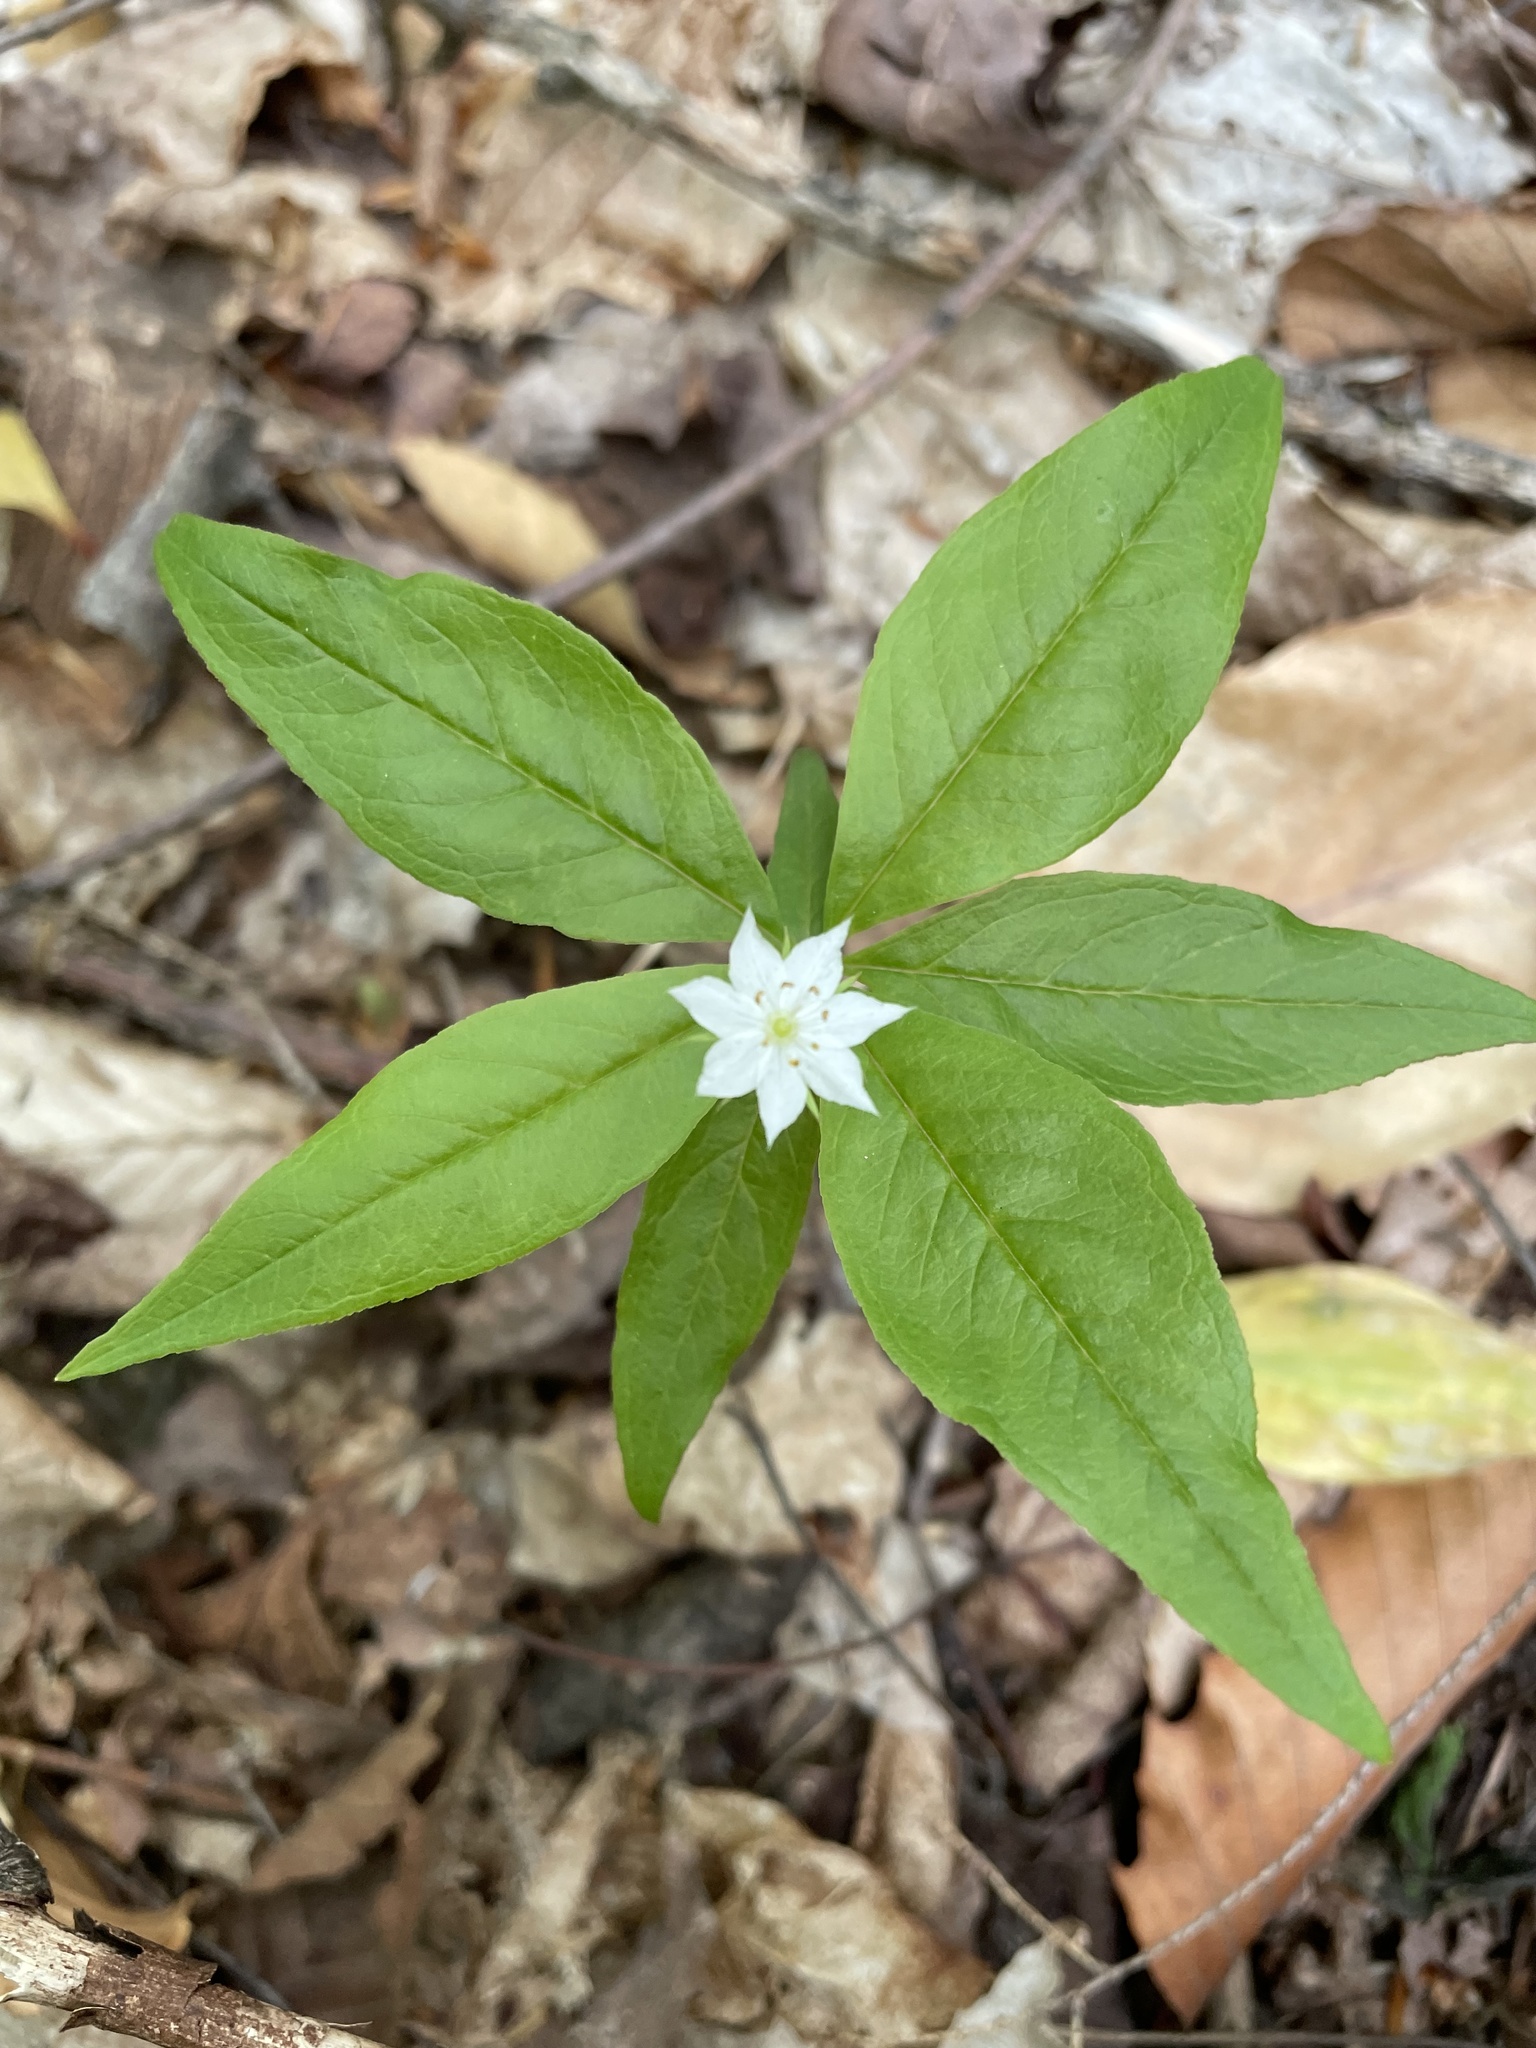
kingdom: Plantae
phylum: Tracheophyta
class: Magnoliopsida
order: Ericales
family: Primulaceae
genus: Lysimachia
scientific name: Lysimachia borealis
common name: American starflower
